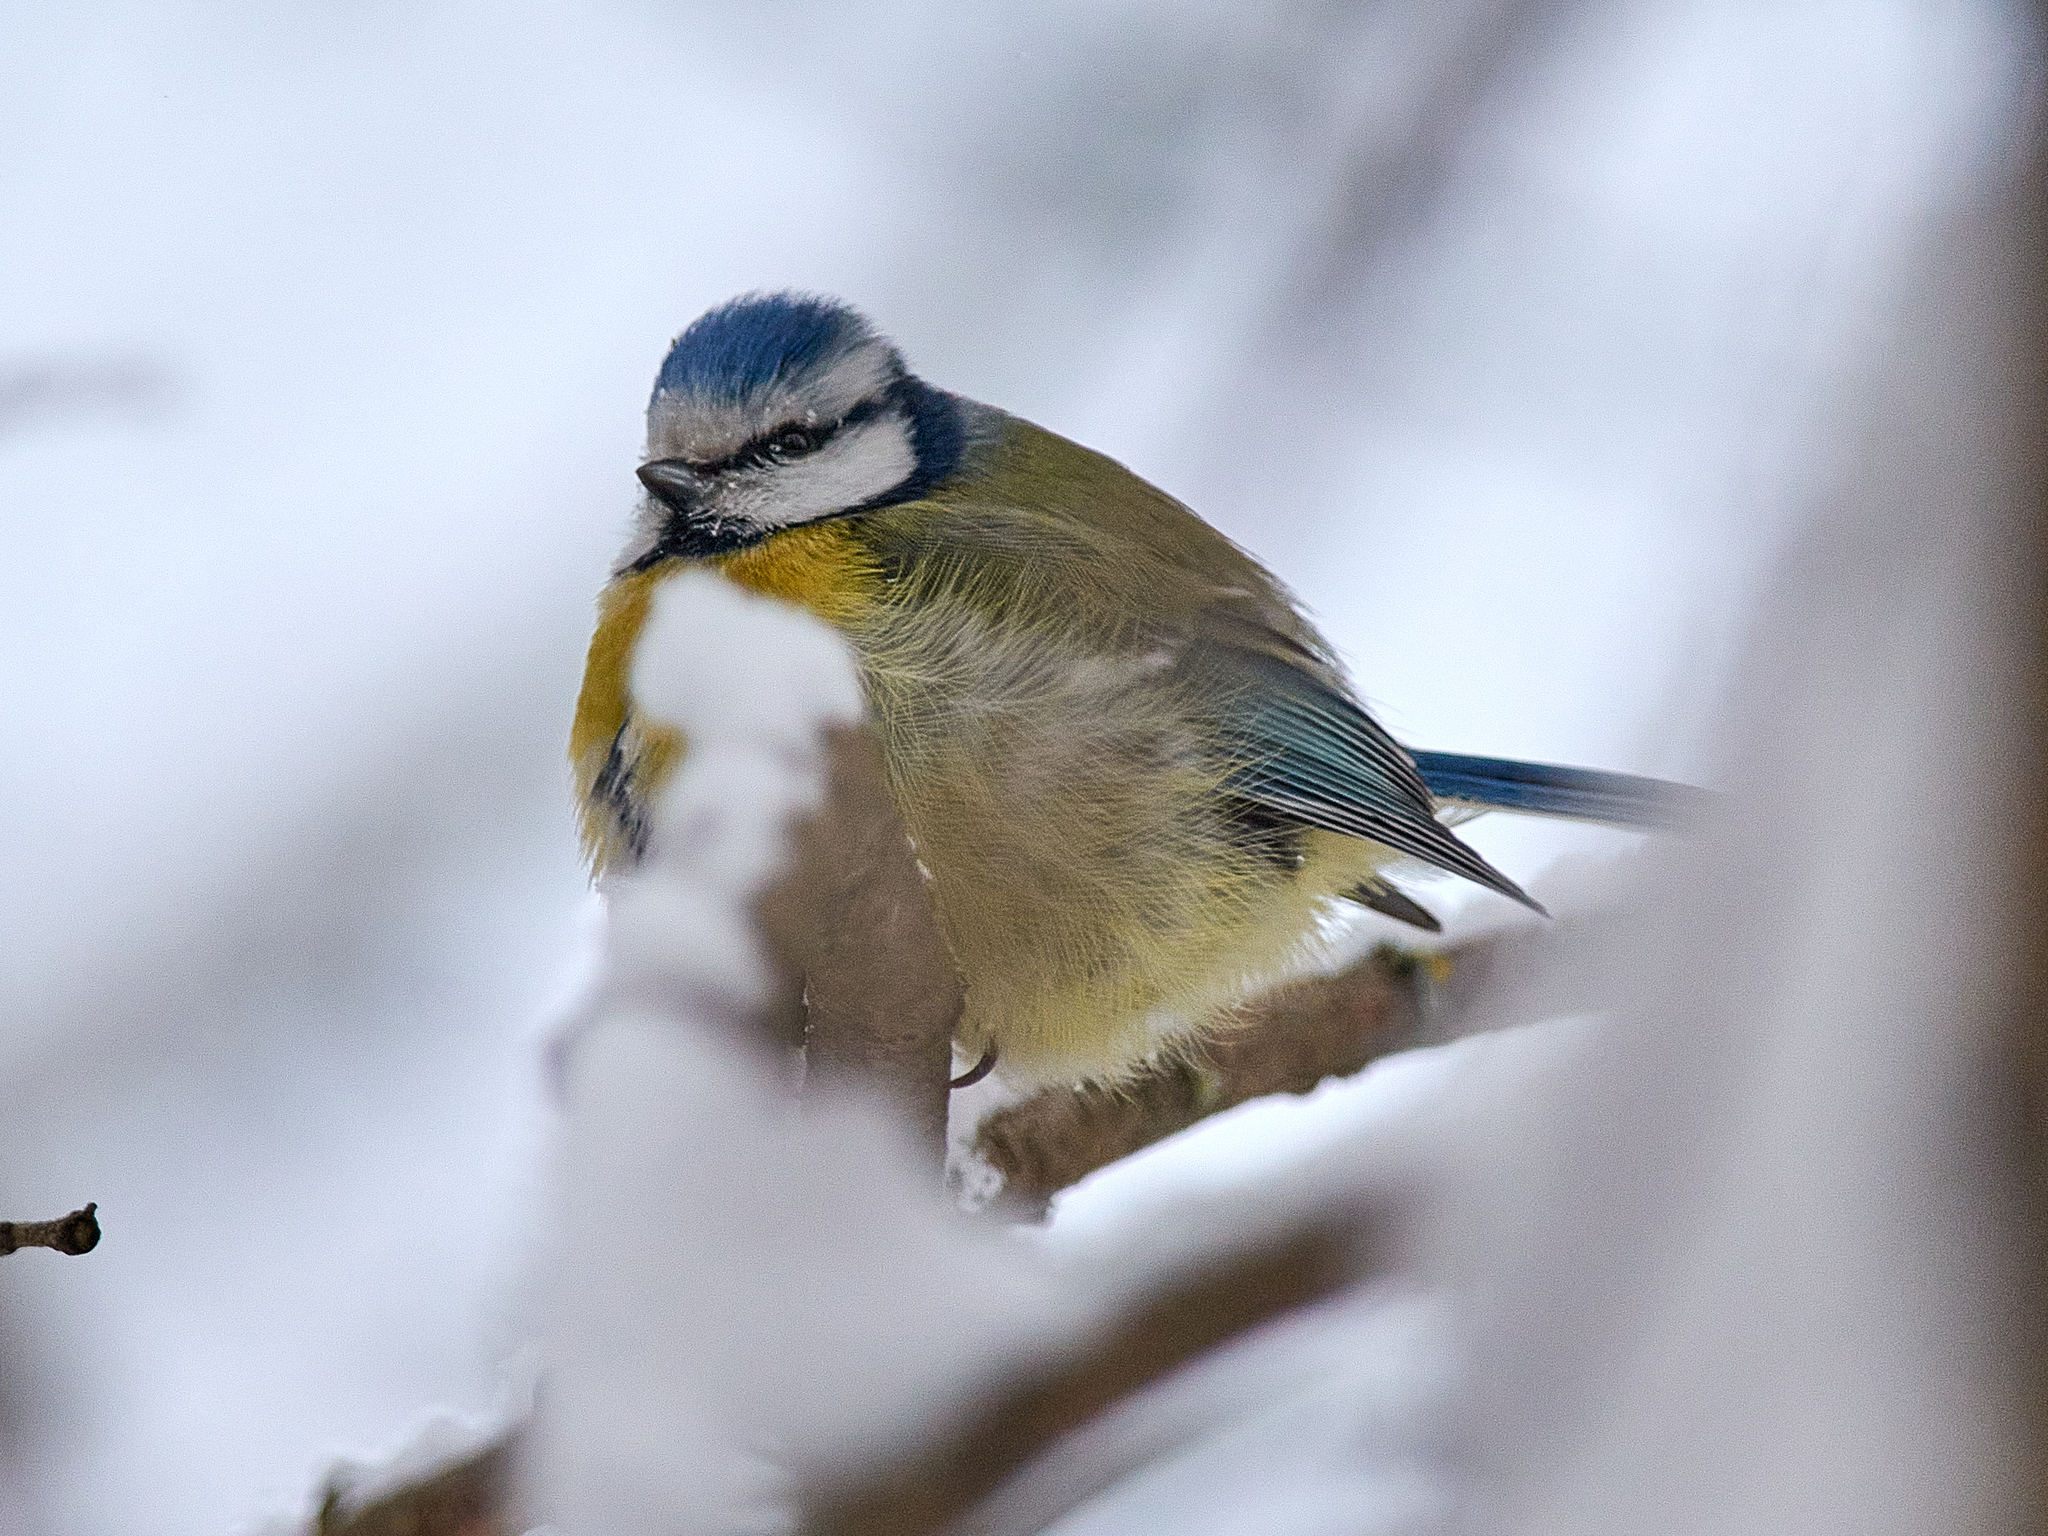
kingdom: Animalia
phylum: Chordata
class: Aves
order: Passeriformes
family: Paridae
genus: Cyanistes
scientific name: Cyanistes caeruleus
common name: Eurasian blue tit
